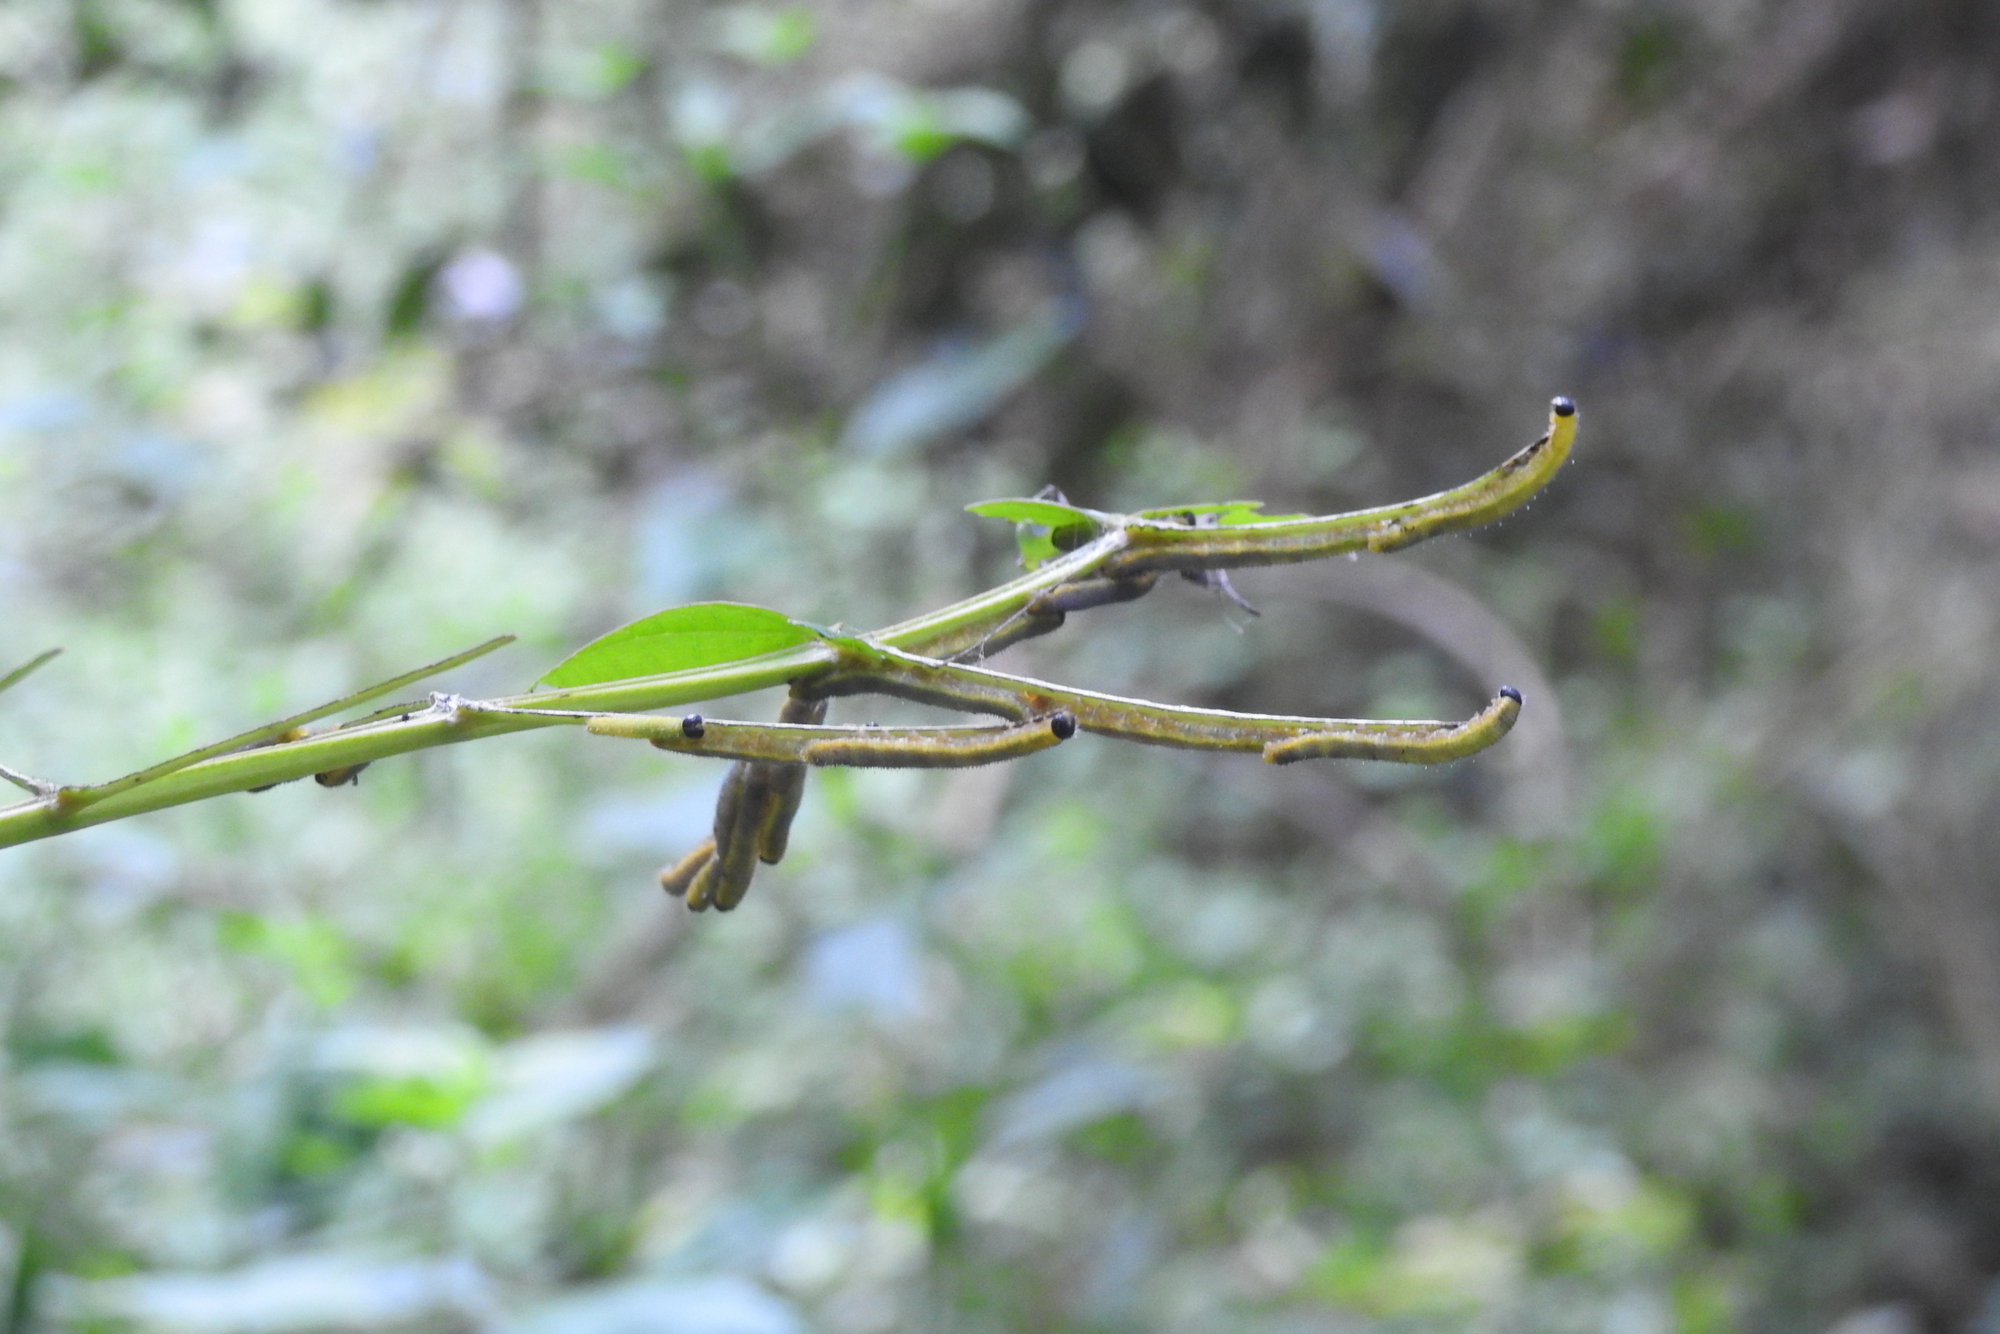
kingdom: Animalia
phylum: Arthropoda
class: Insecta
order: Lepidoptera
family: Pieridae
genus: Eurema
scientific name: Eurema blanda
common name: Three-spot grass yellow
